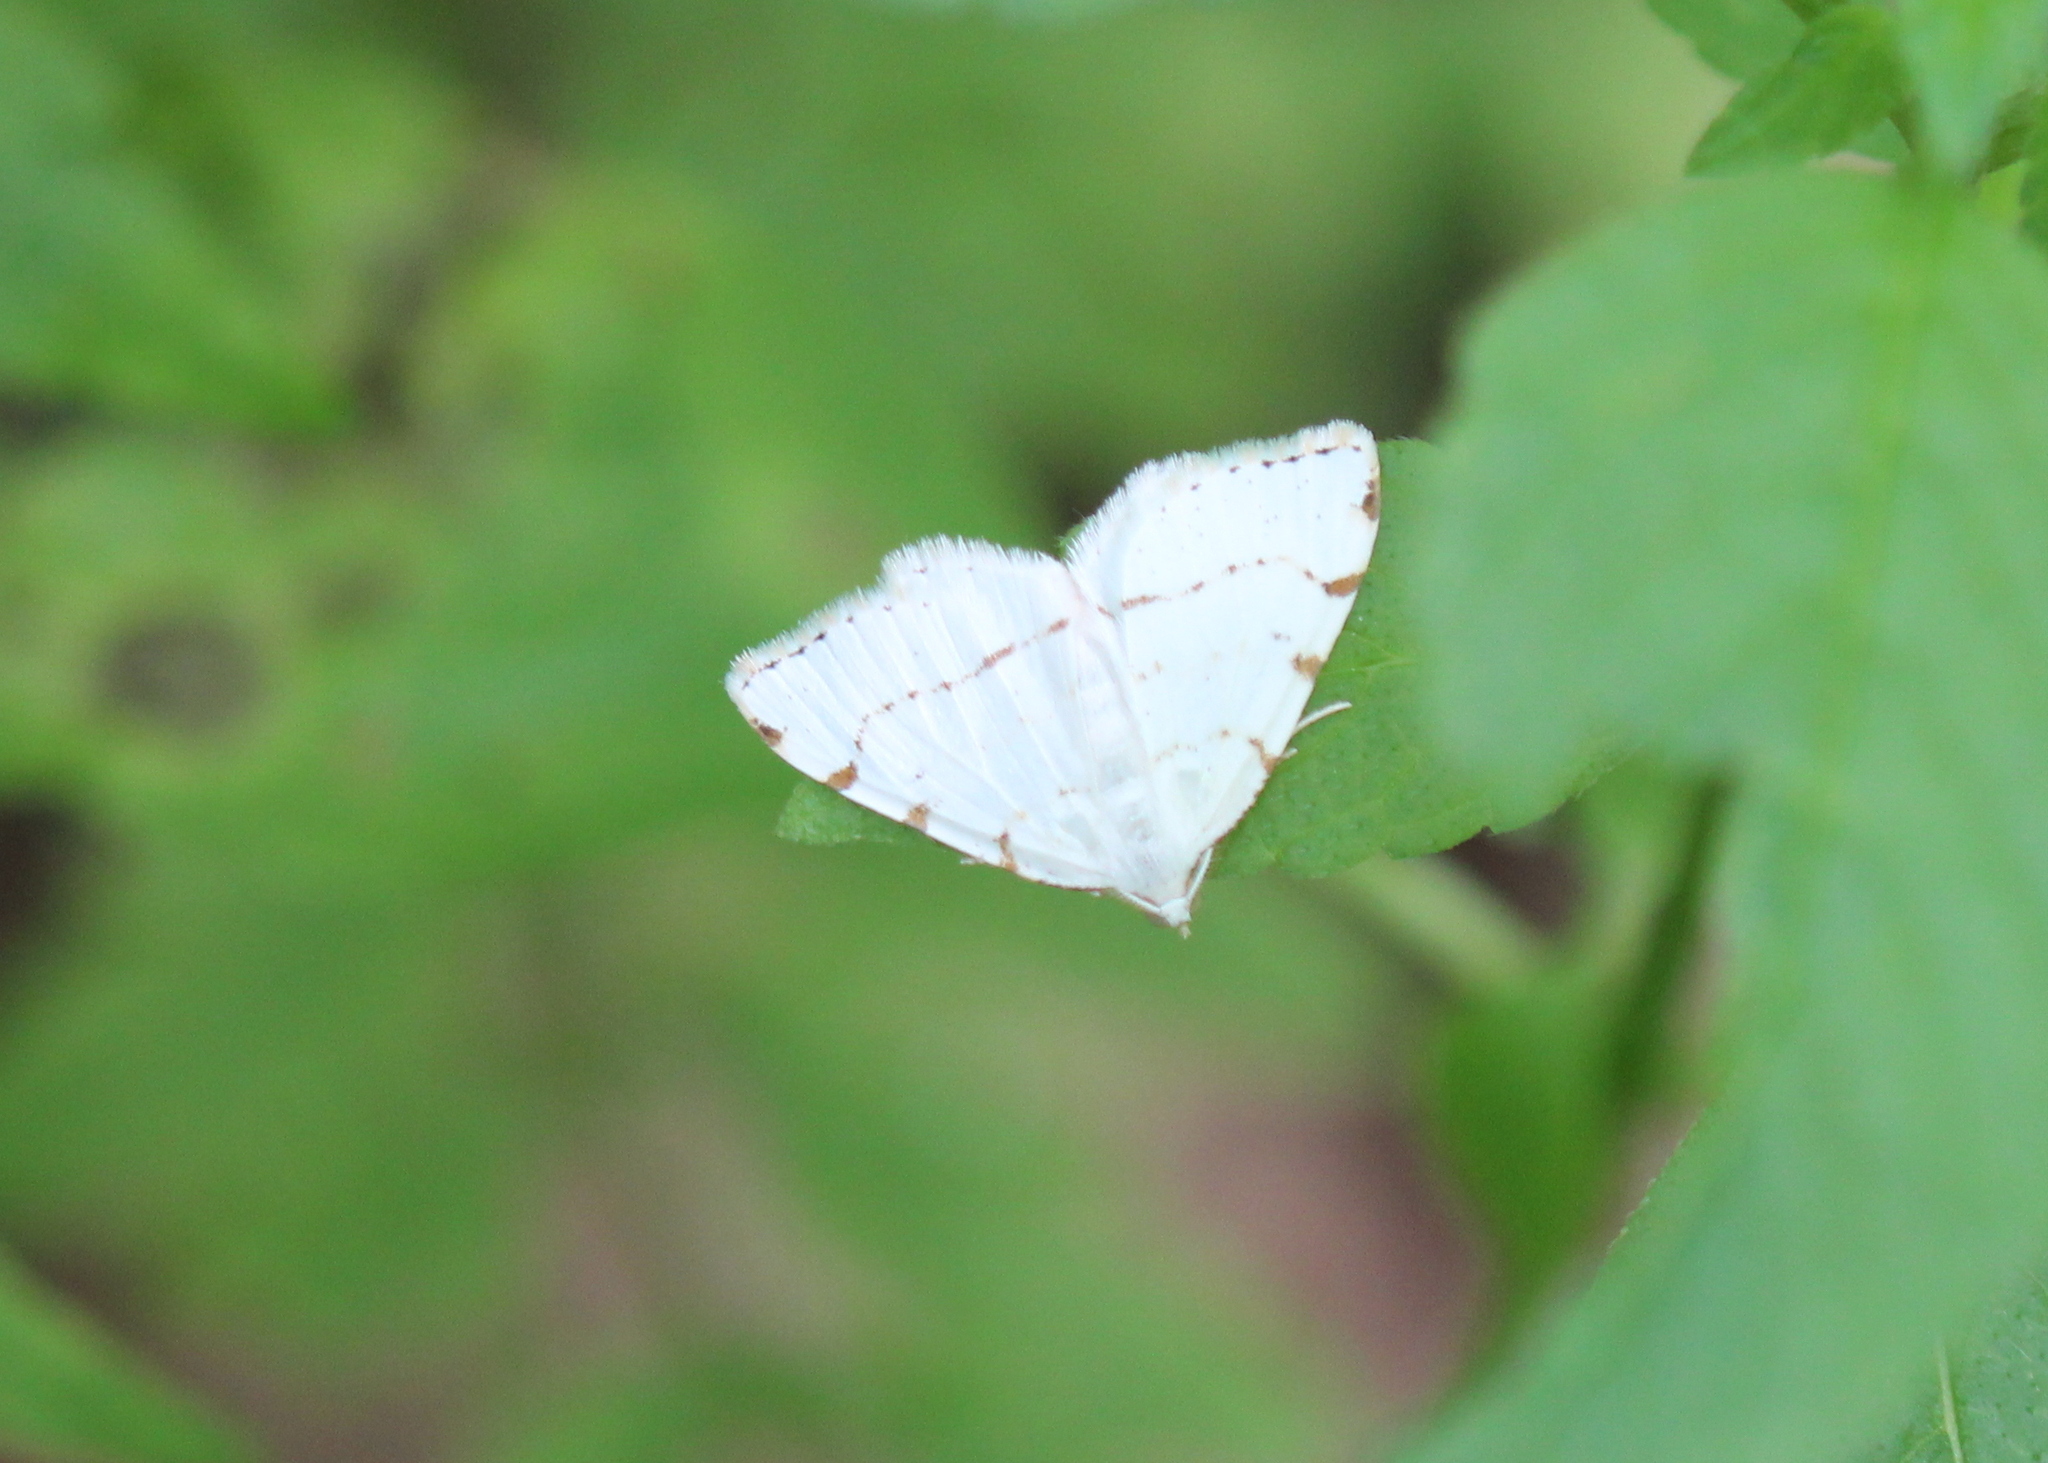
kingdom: Animalia
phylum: Arthropoda
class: Insecta
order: Lepidoptera
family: Geometridae
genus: Macaria
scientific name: Macaria pustularia
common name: Lesser maple spanworm moth
